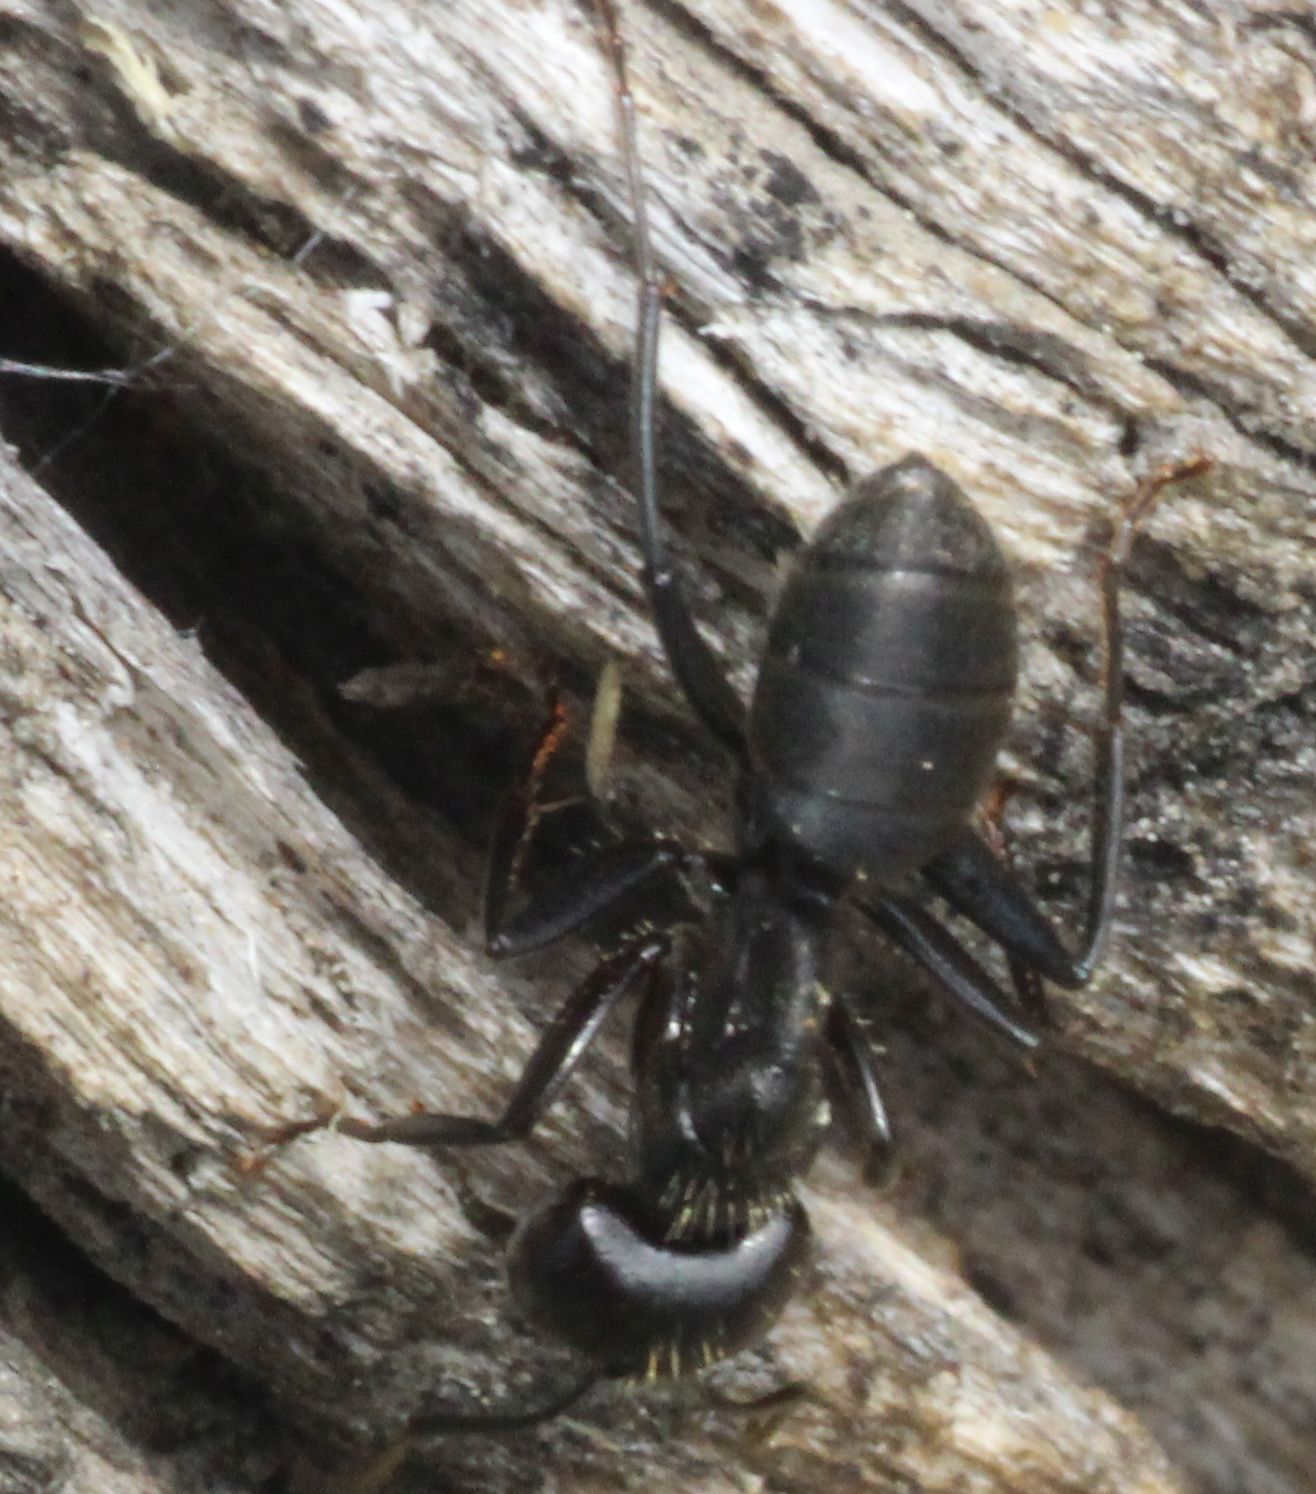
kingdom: Animalia
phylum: Arthropoda
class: Insecta
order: Hymenoptera
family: Formicidae
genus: Camponotus
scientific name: Camponotus vagus
